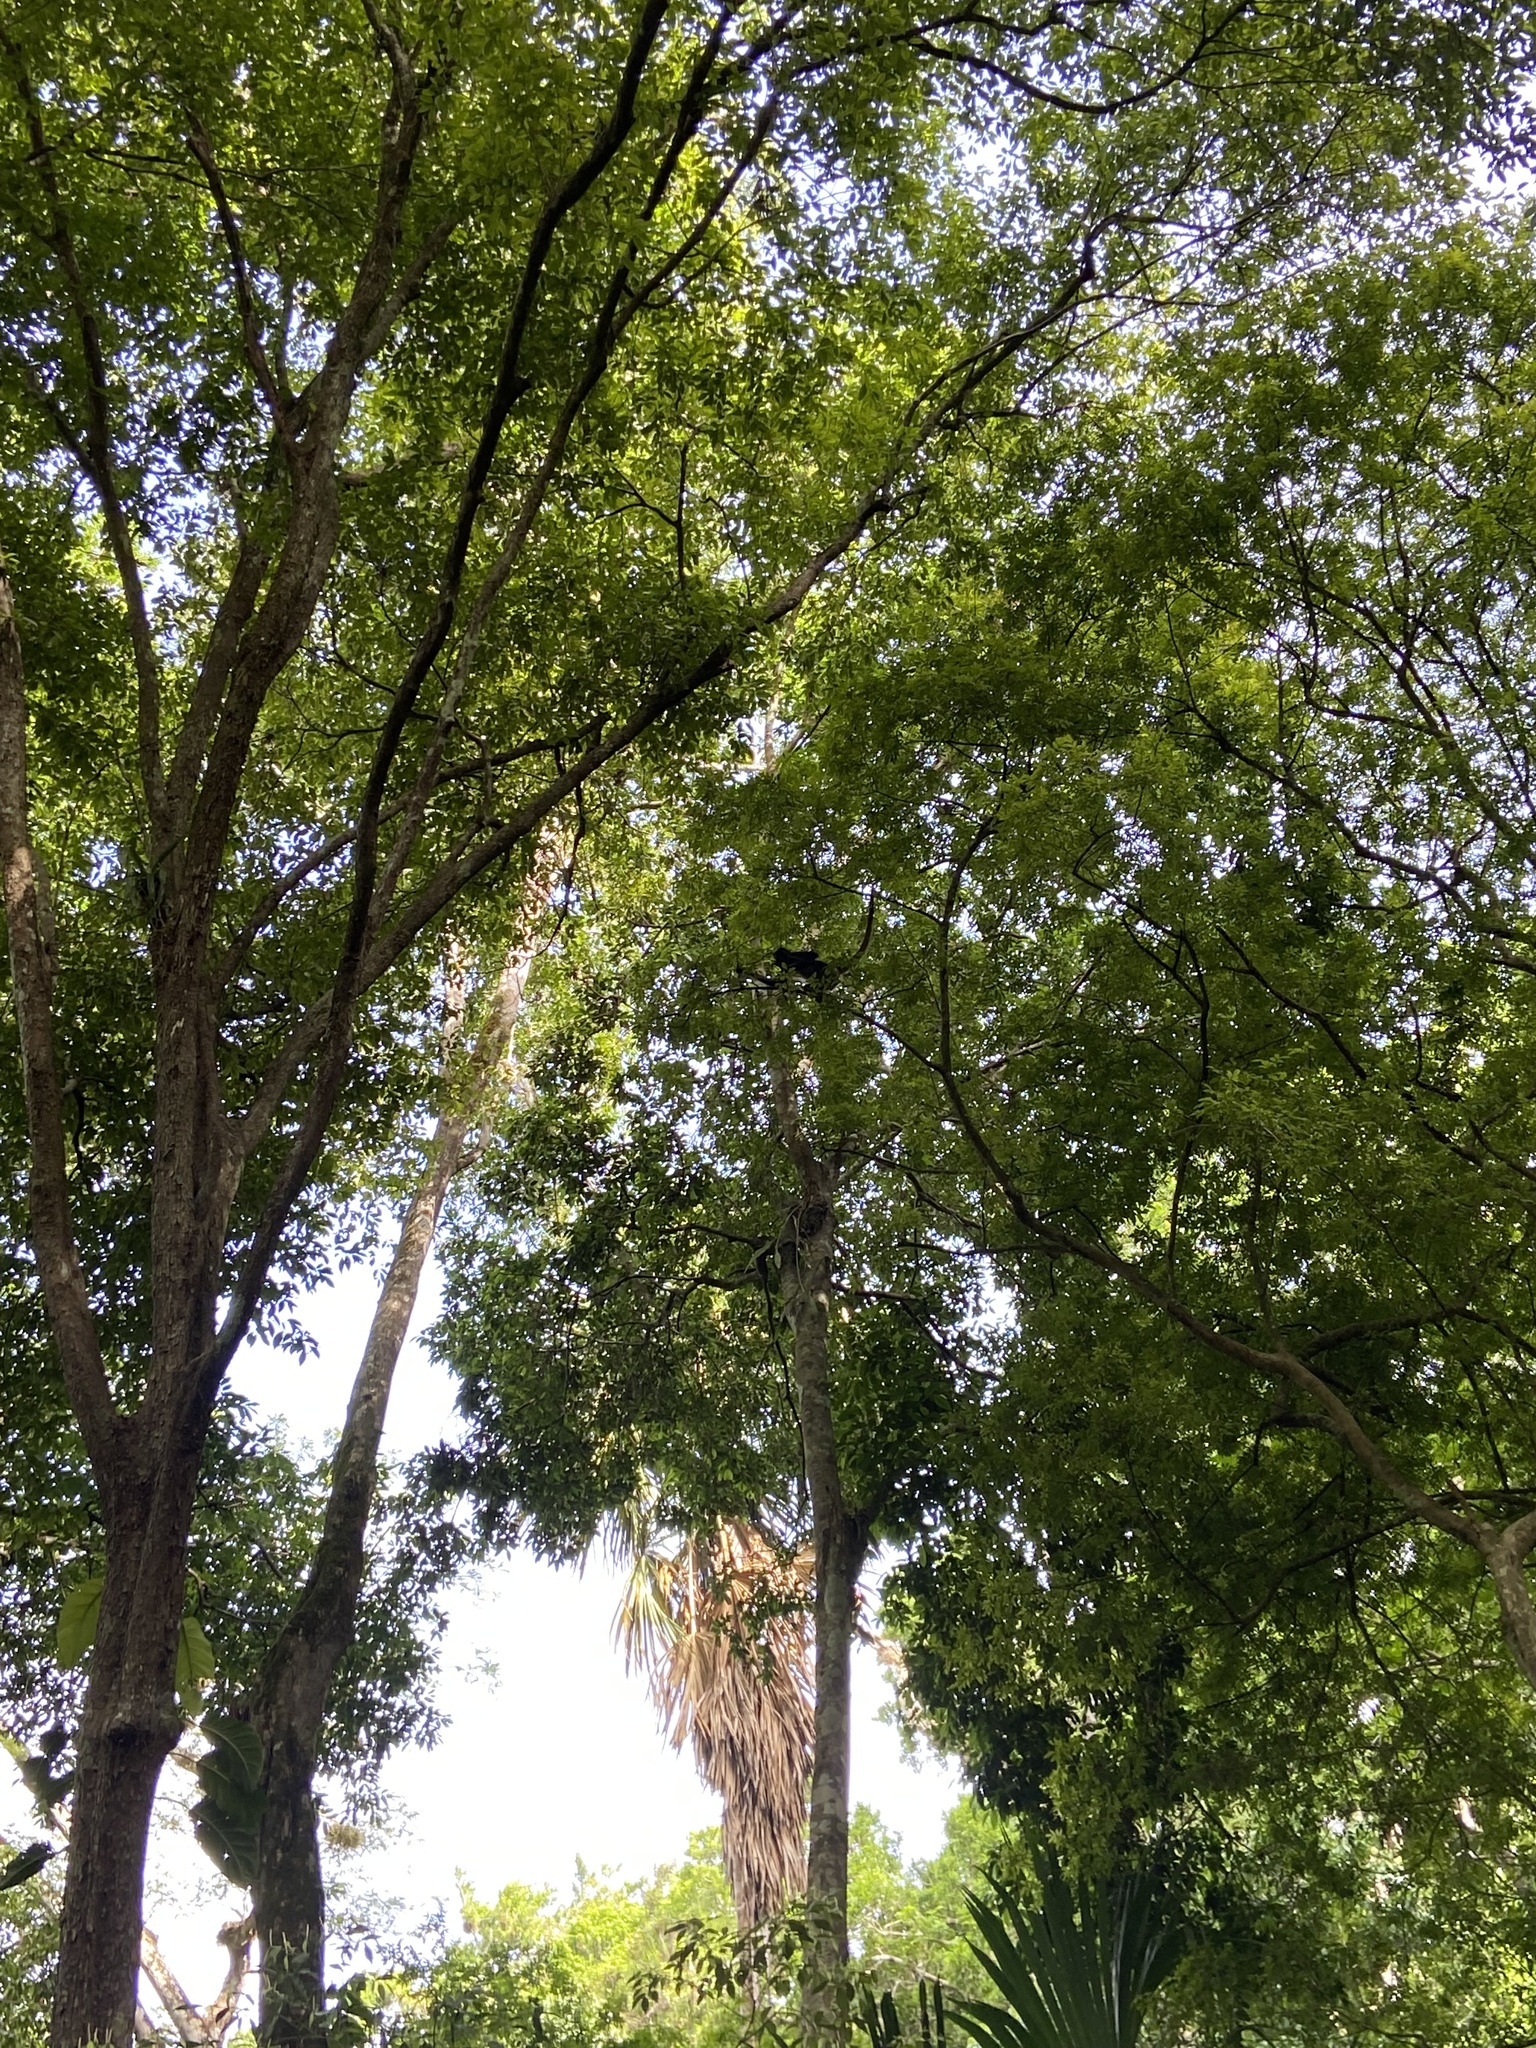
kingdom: Animalia
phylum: Chordata
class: Mammalia
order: Primates
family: Atelidae
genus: Ateles
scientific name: Ateles geoffroyi
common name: Black-handed spider monkey
